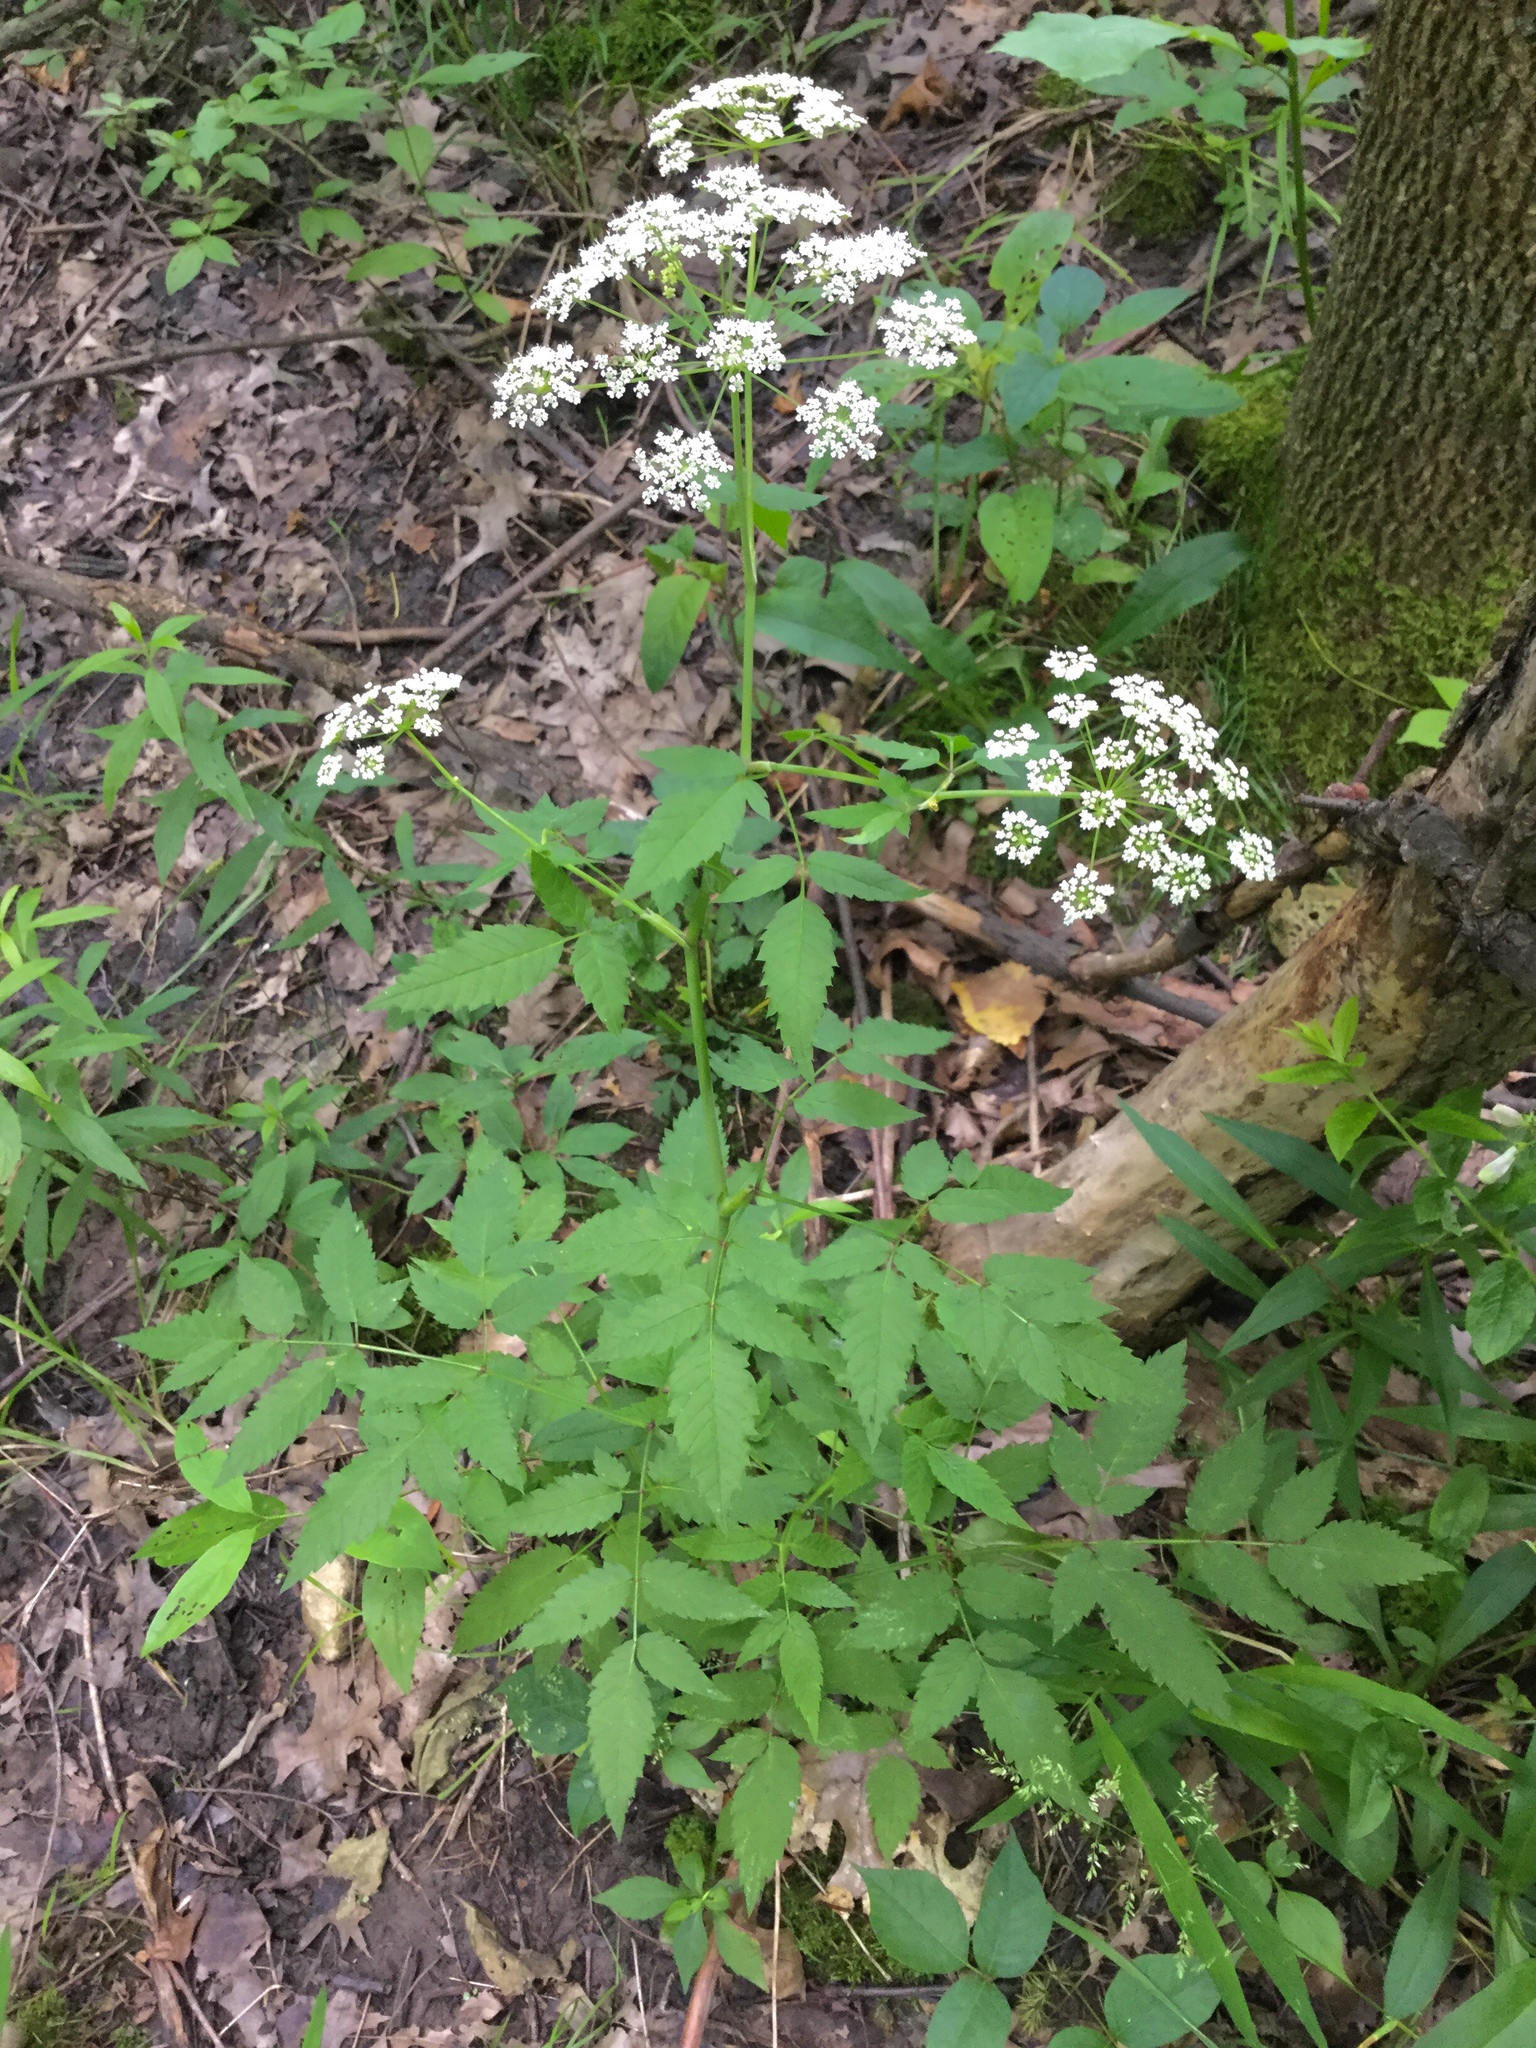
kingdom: Plantae
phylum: Tracheophyta
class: Magnoliopsida
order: Apiales
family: Apiaceae
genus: Cicuta
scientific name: Cicuta maculata
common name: Spotted cowbane
